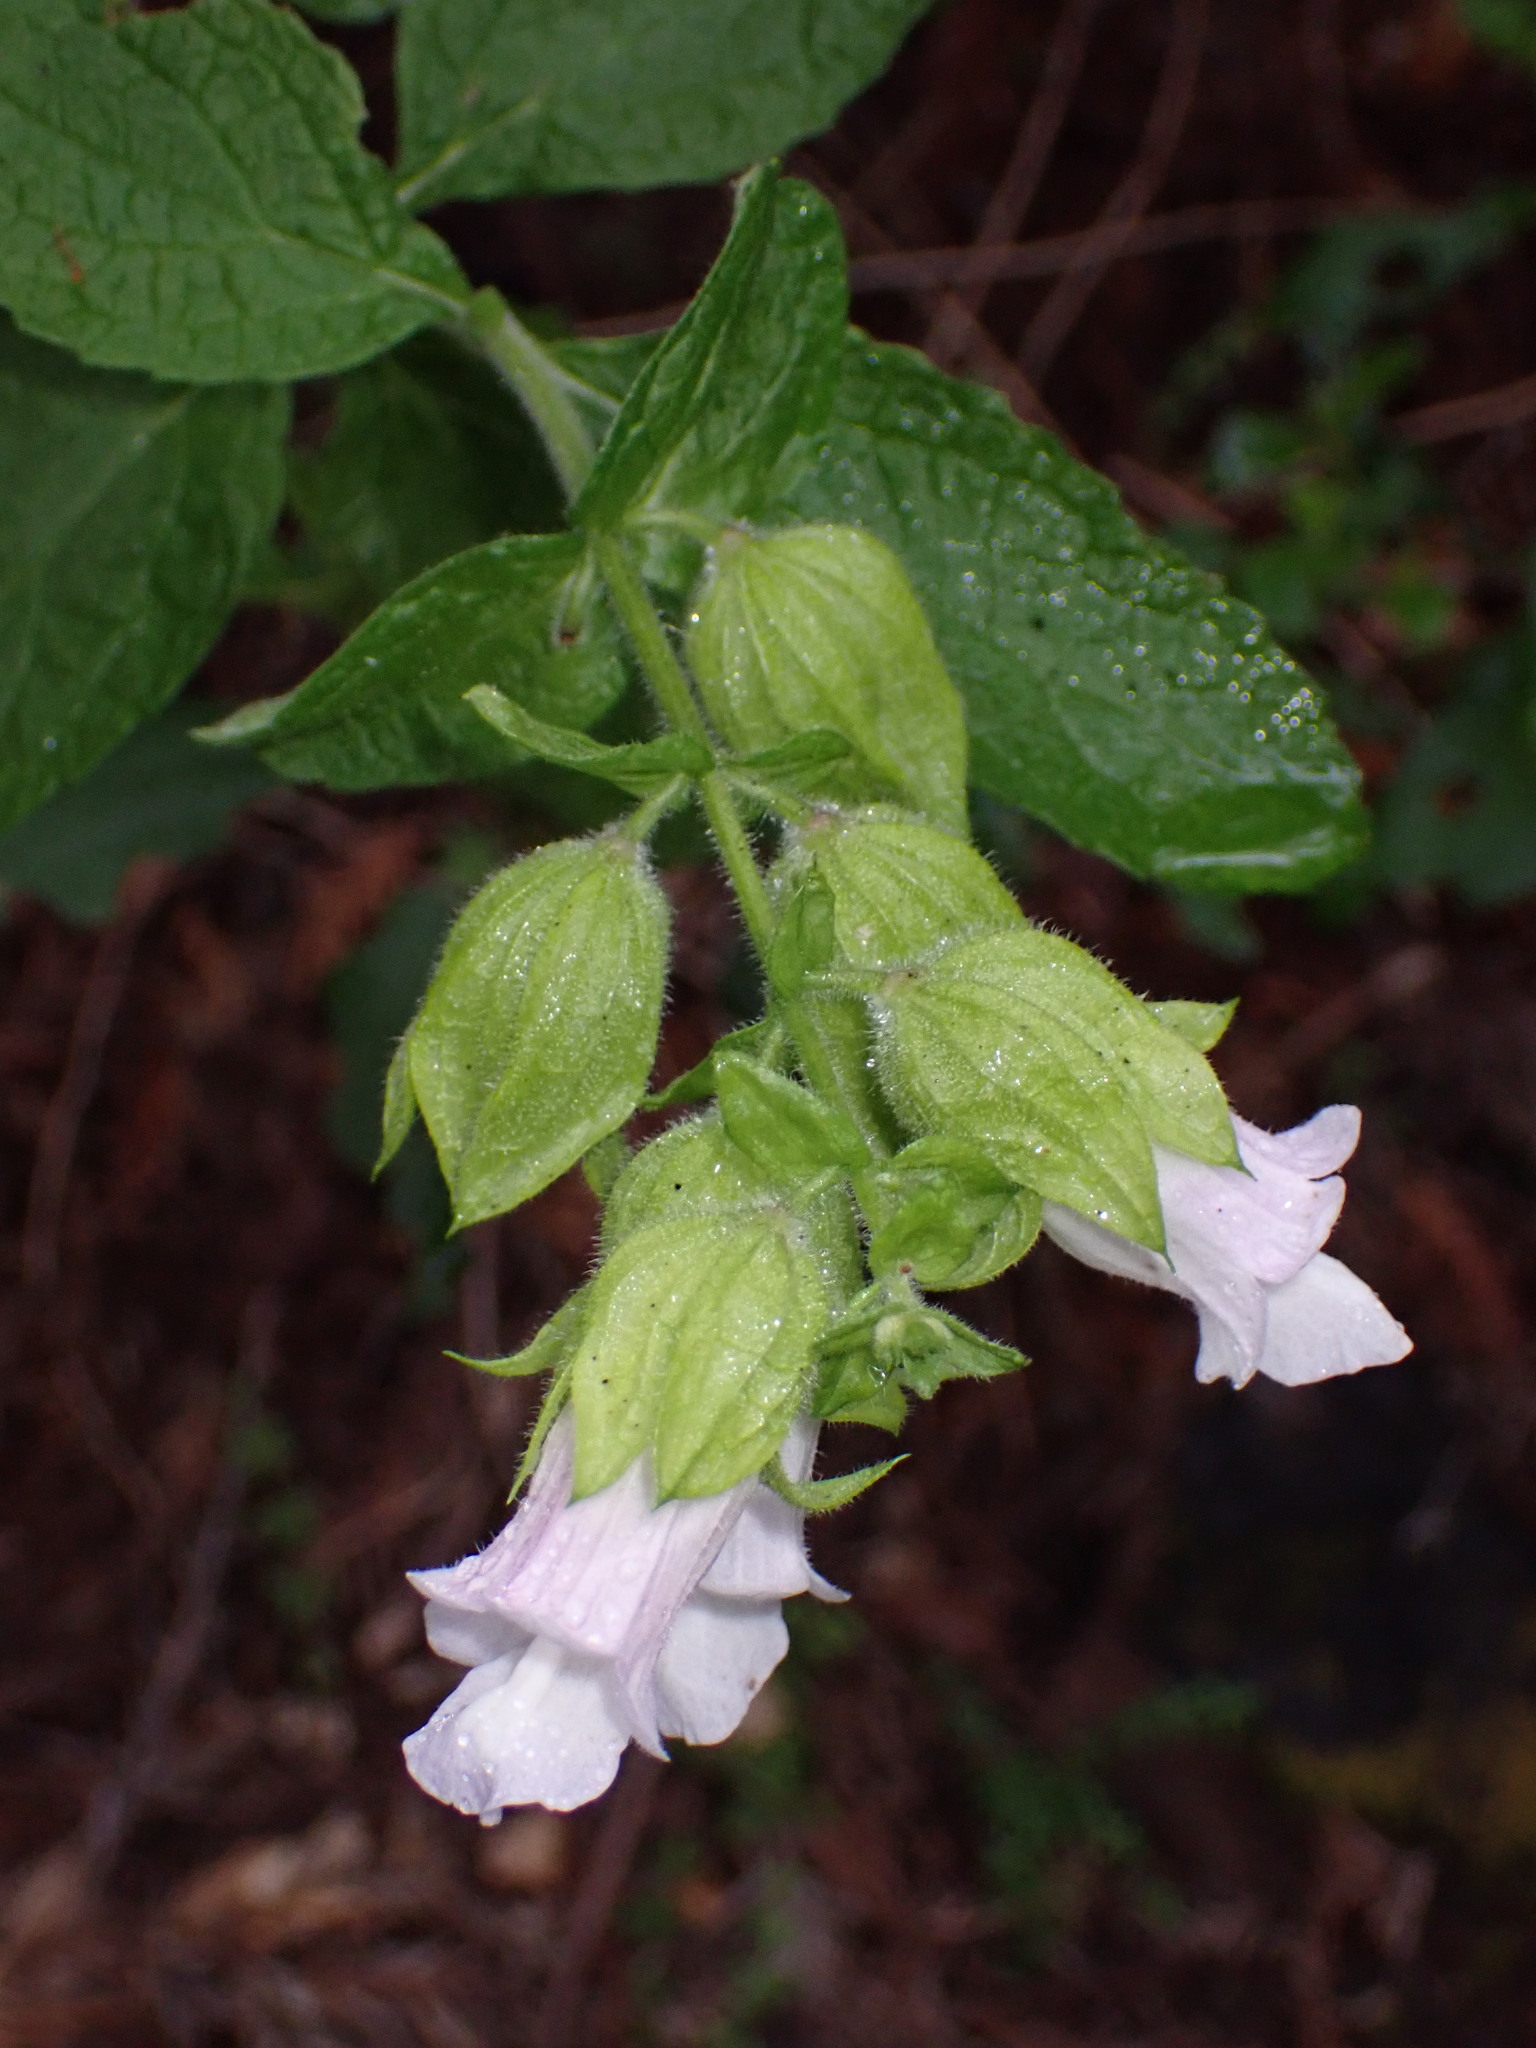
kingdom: Plantae
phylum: Tracheophyta
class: Magnoliopsida
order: Lamiales
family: Lamiaceae
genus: Lepechinia
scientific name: Lepechinia calycina
